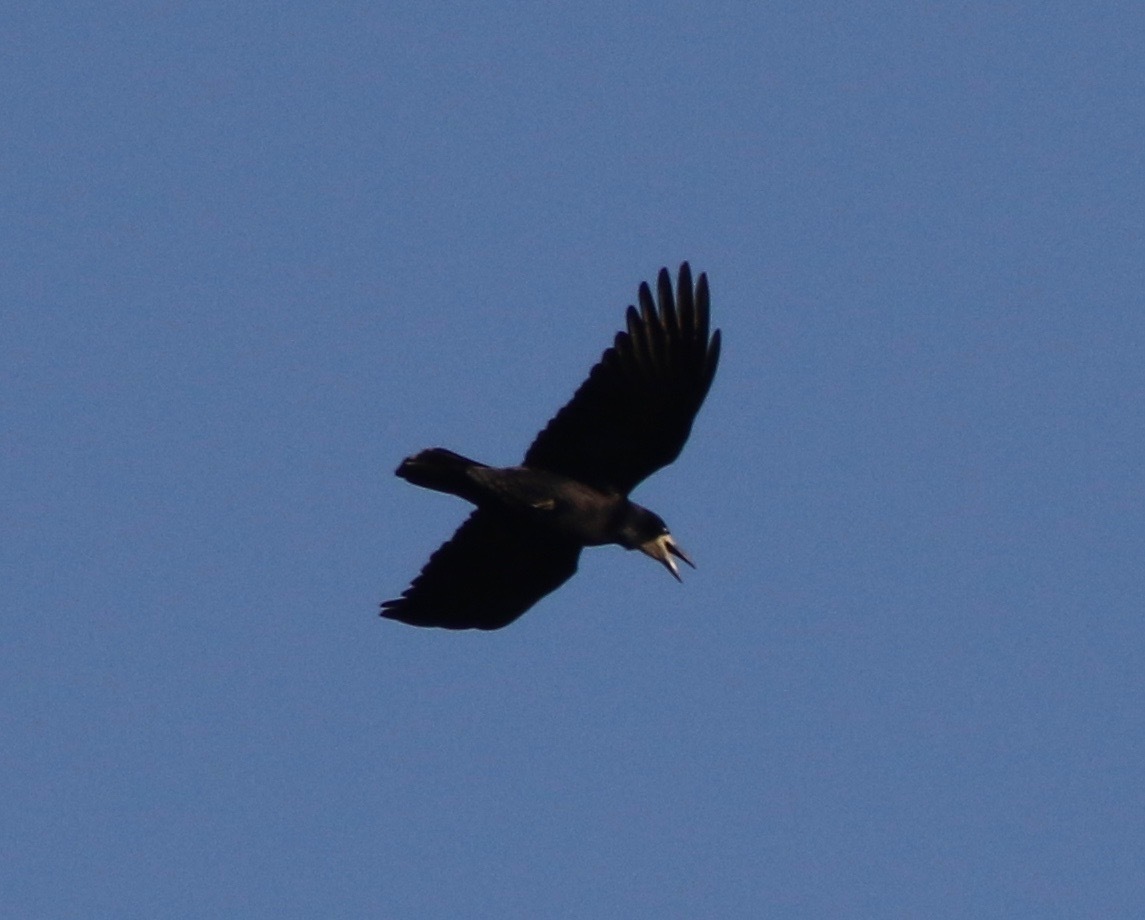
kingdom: Animalia
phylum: Chordata
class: Aves
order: Passeriformes
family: Corvidae
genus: Corvus
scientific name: Corvus frugilegus
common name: Rook
